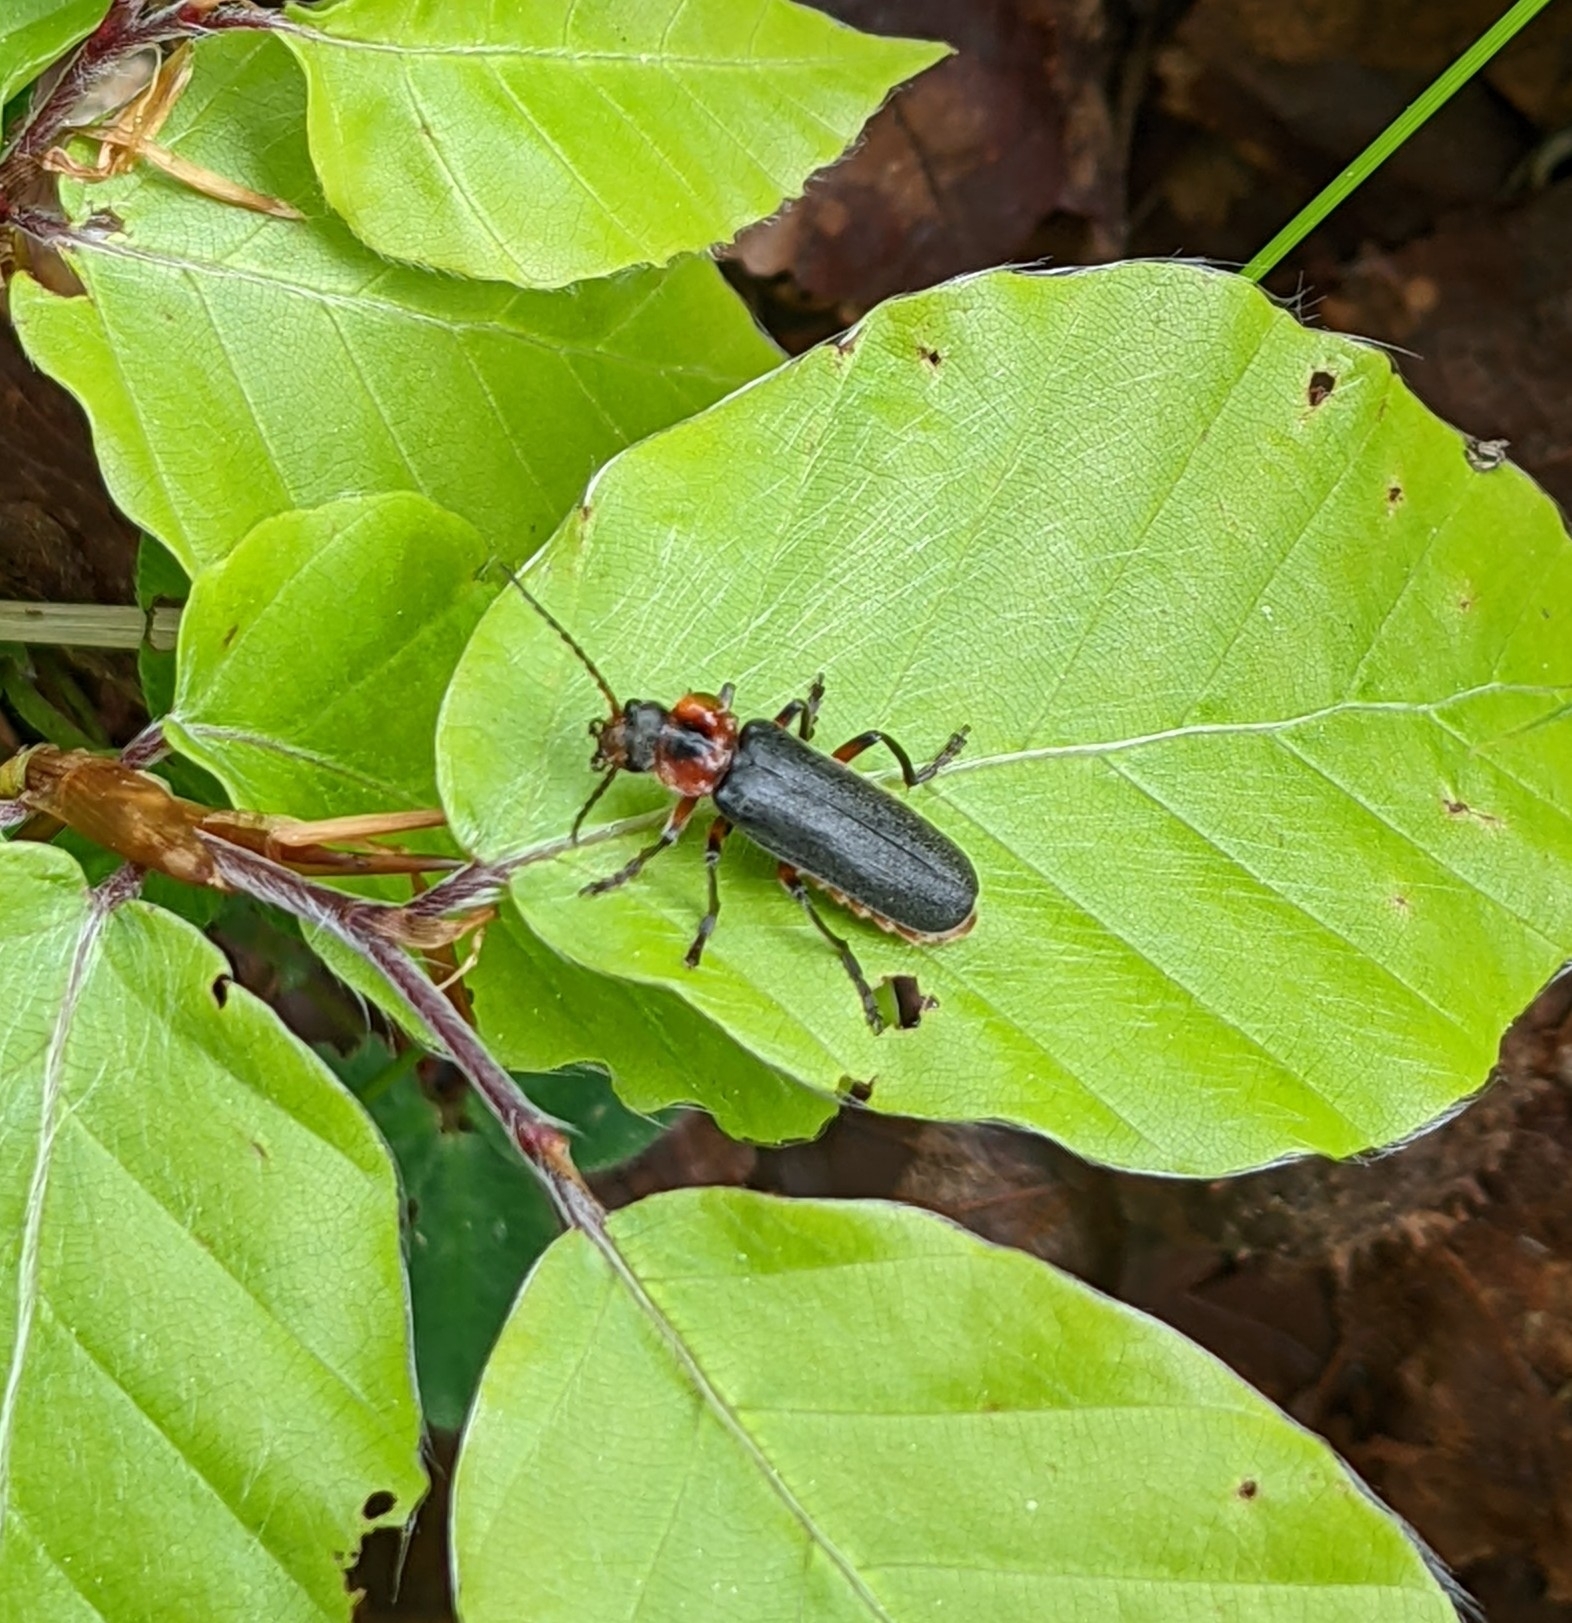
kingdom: Animalia
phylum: Arthropoda
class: Insecta
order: Coleoptera
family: Cantharidae
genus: Cantharis
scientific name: Cantharis rustica
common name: Soldier beetle
